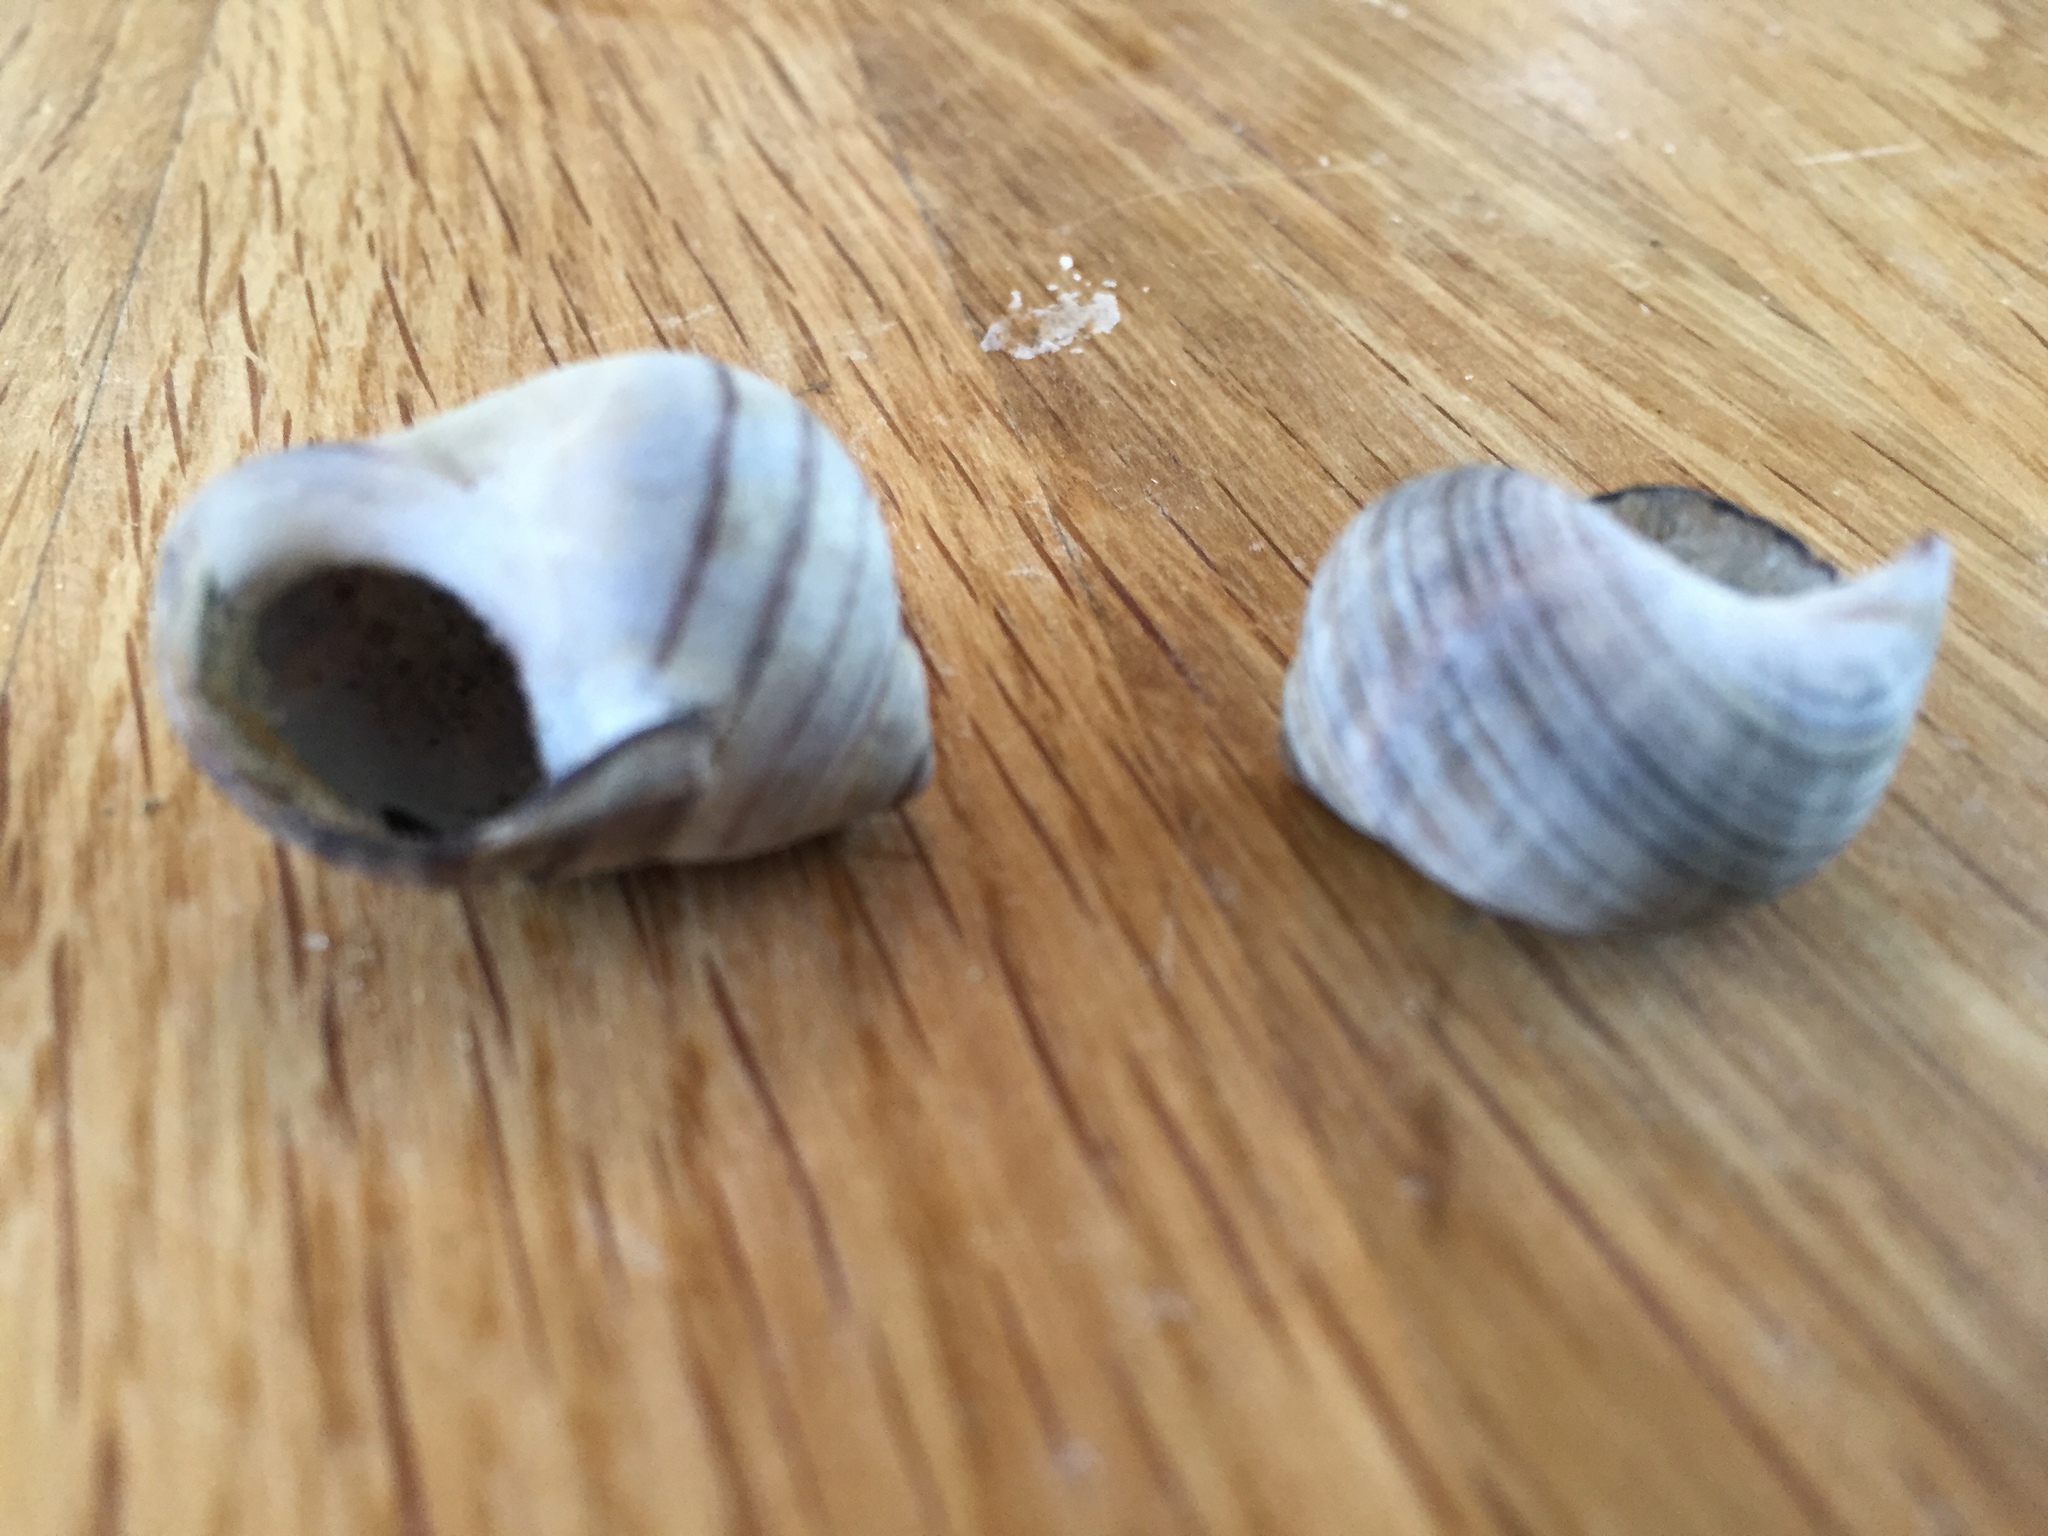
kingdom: Animalia
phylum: Mollusca
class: Gastropoda
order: Littorinimorpha
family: Littorinidae
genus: Littorina
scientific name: Littorina littorea
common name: Common periwinkle
